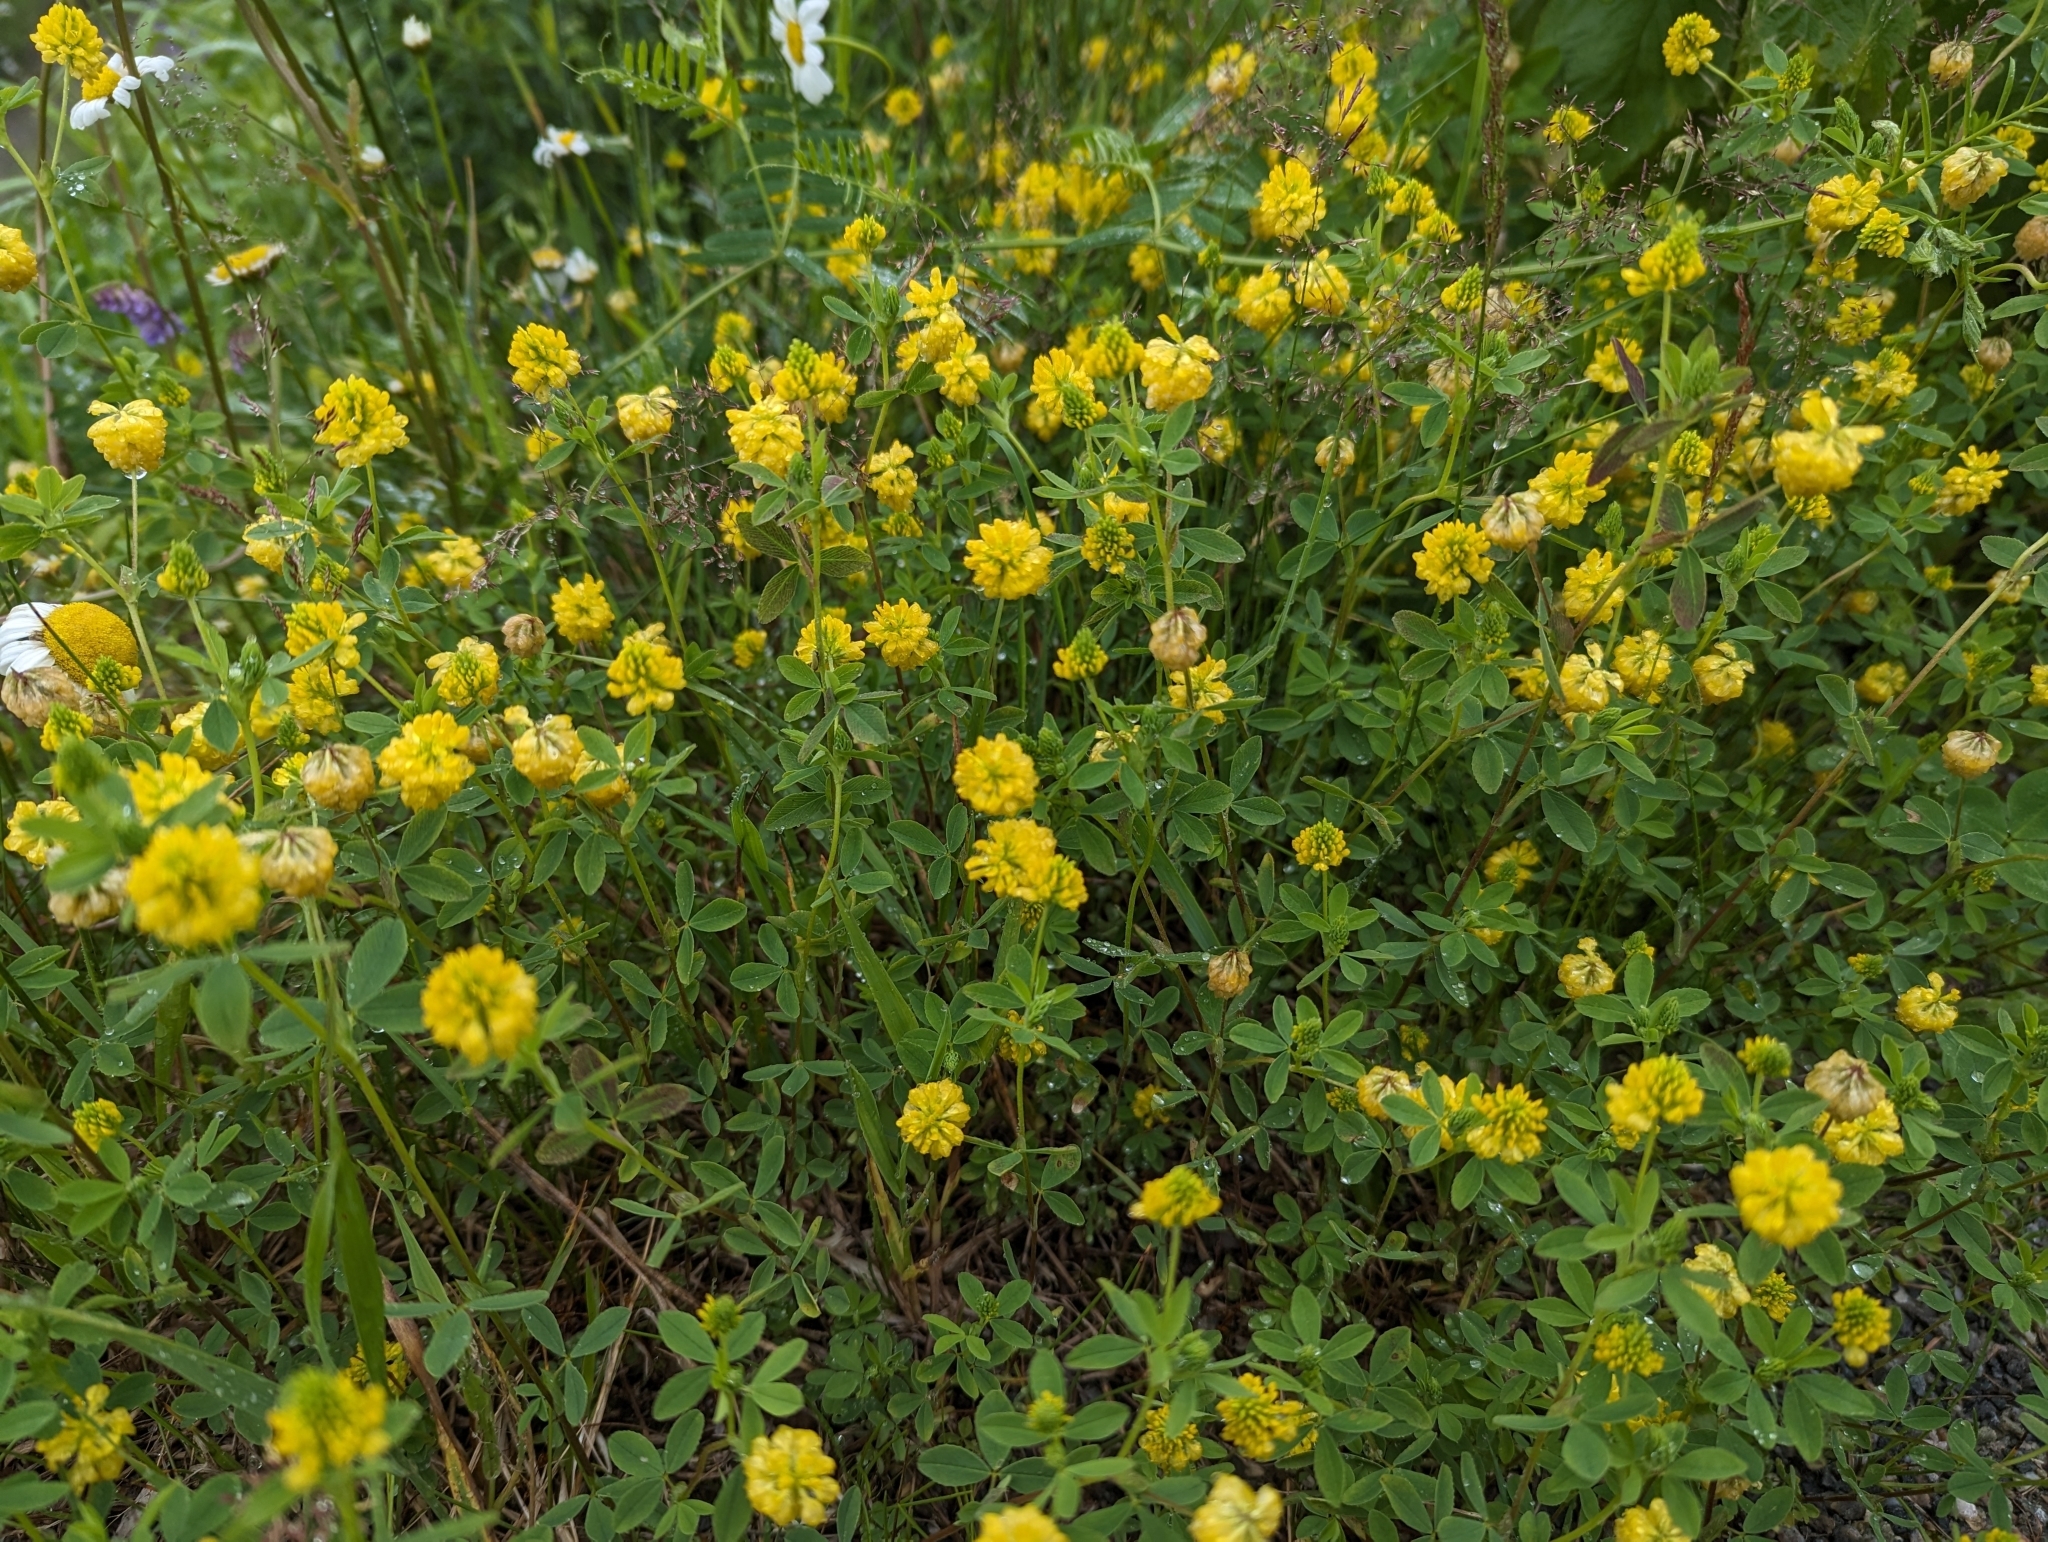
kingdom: Plantae
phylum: Tracheophyta
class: Magnoliopsida
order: Fabales
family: Fabaceae
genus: Trifolium
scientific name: Trifolium aureum
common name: Golden clover
